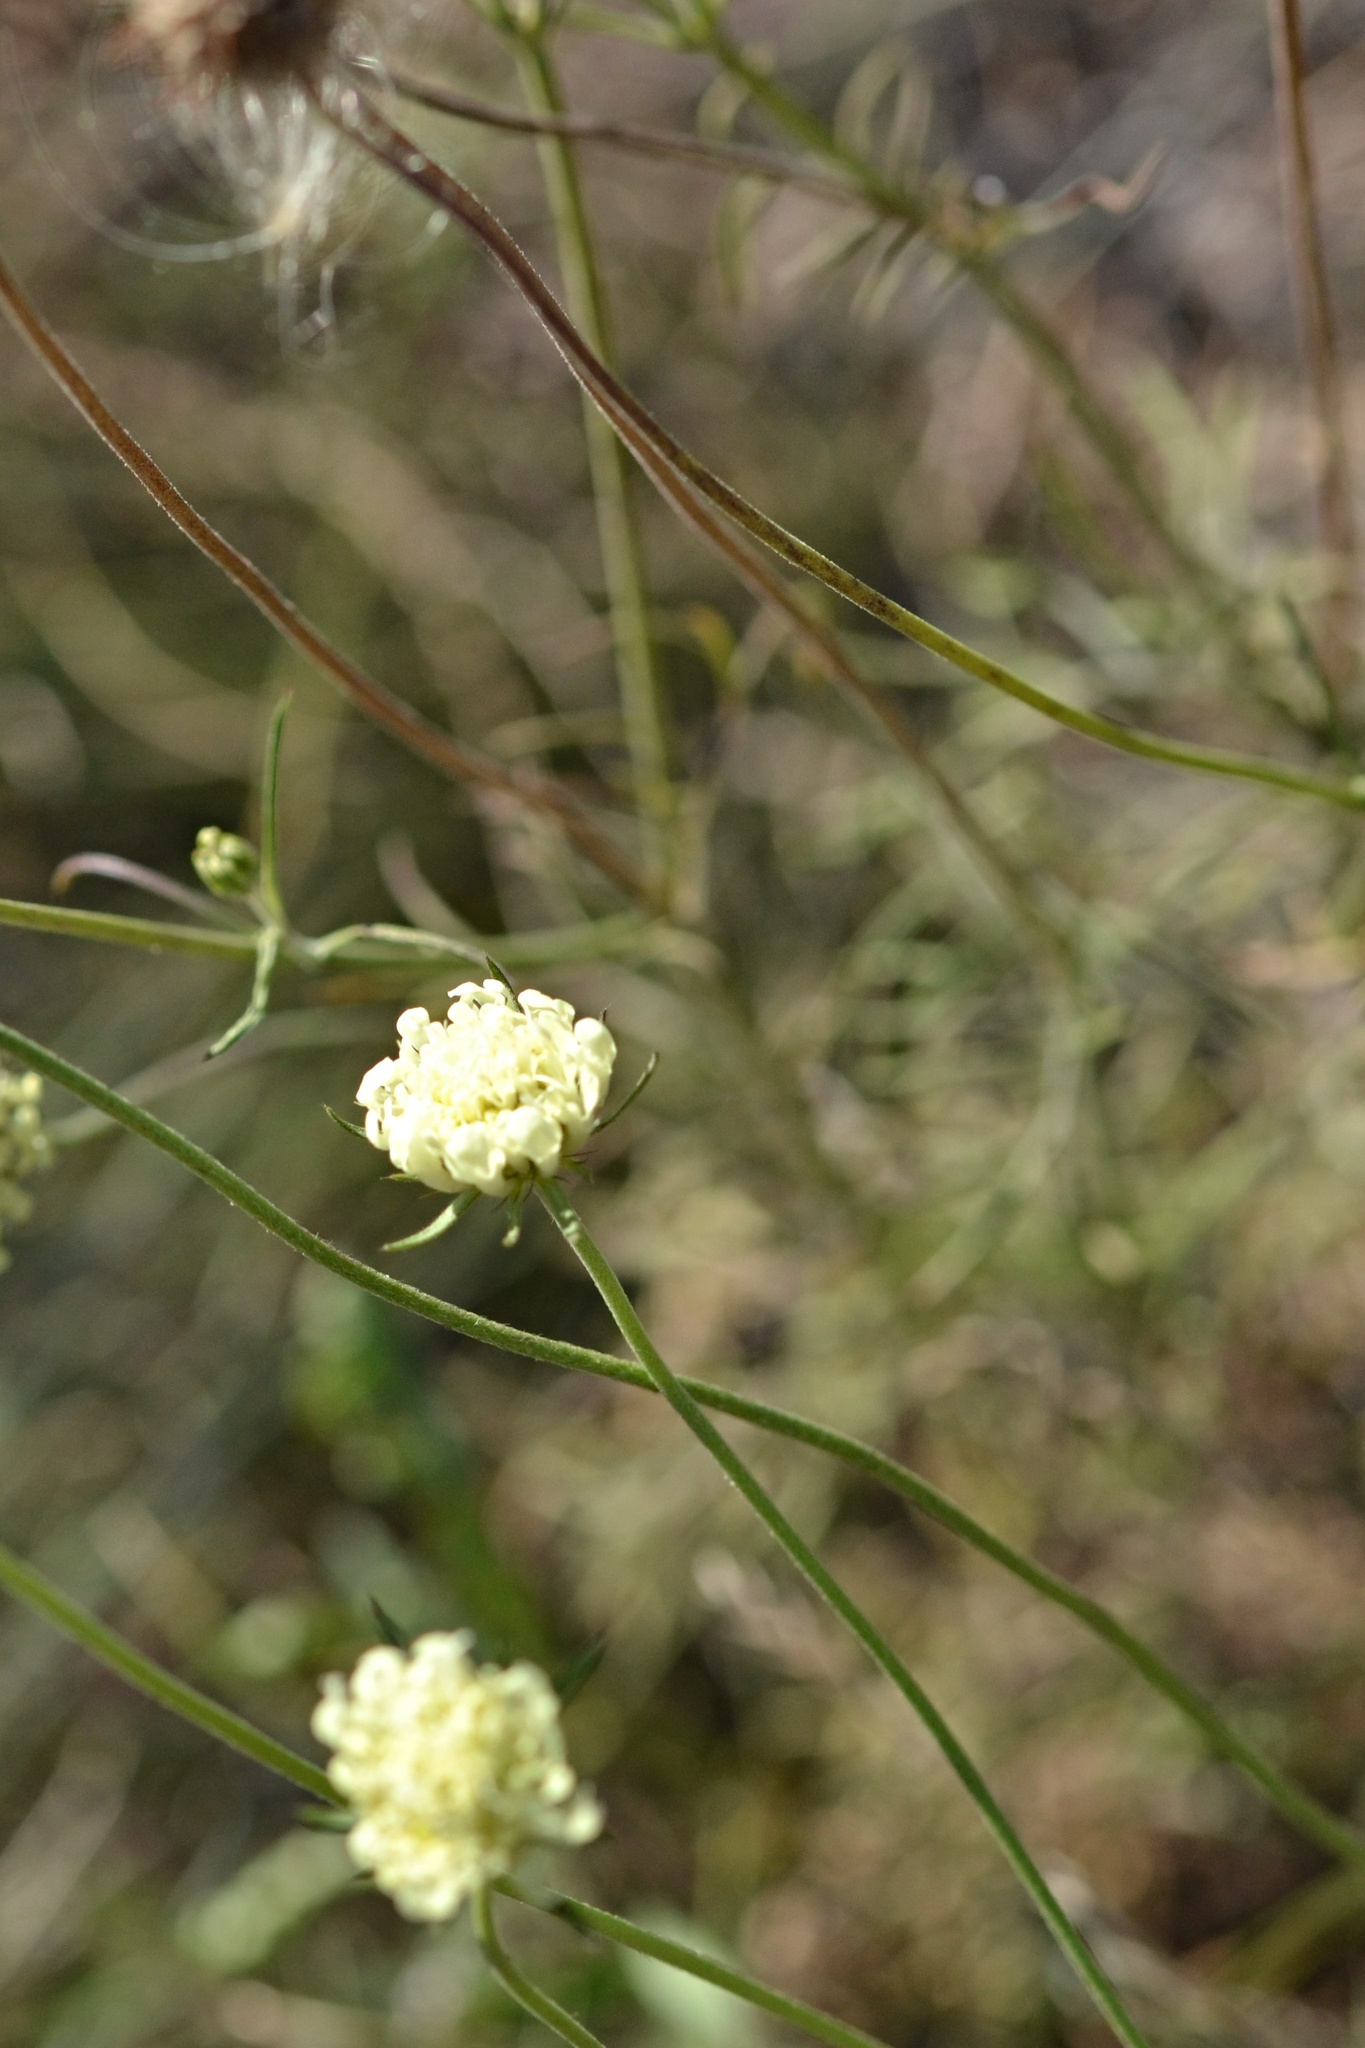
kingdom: Plantae
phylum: Tracheophyta
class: Magnoliopsida
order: Dipsacales
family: Caprifoliaceae
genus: Scabiosa
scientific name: Scabiosa ochroleuca
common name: Cream pincushions
